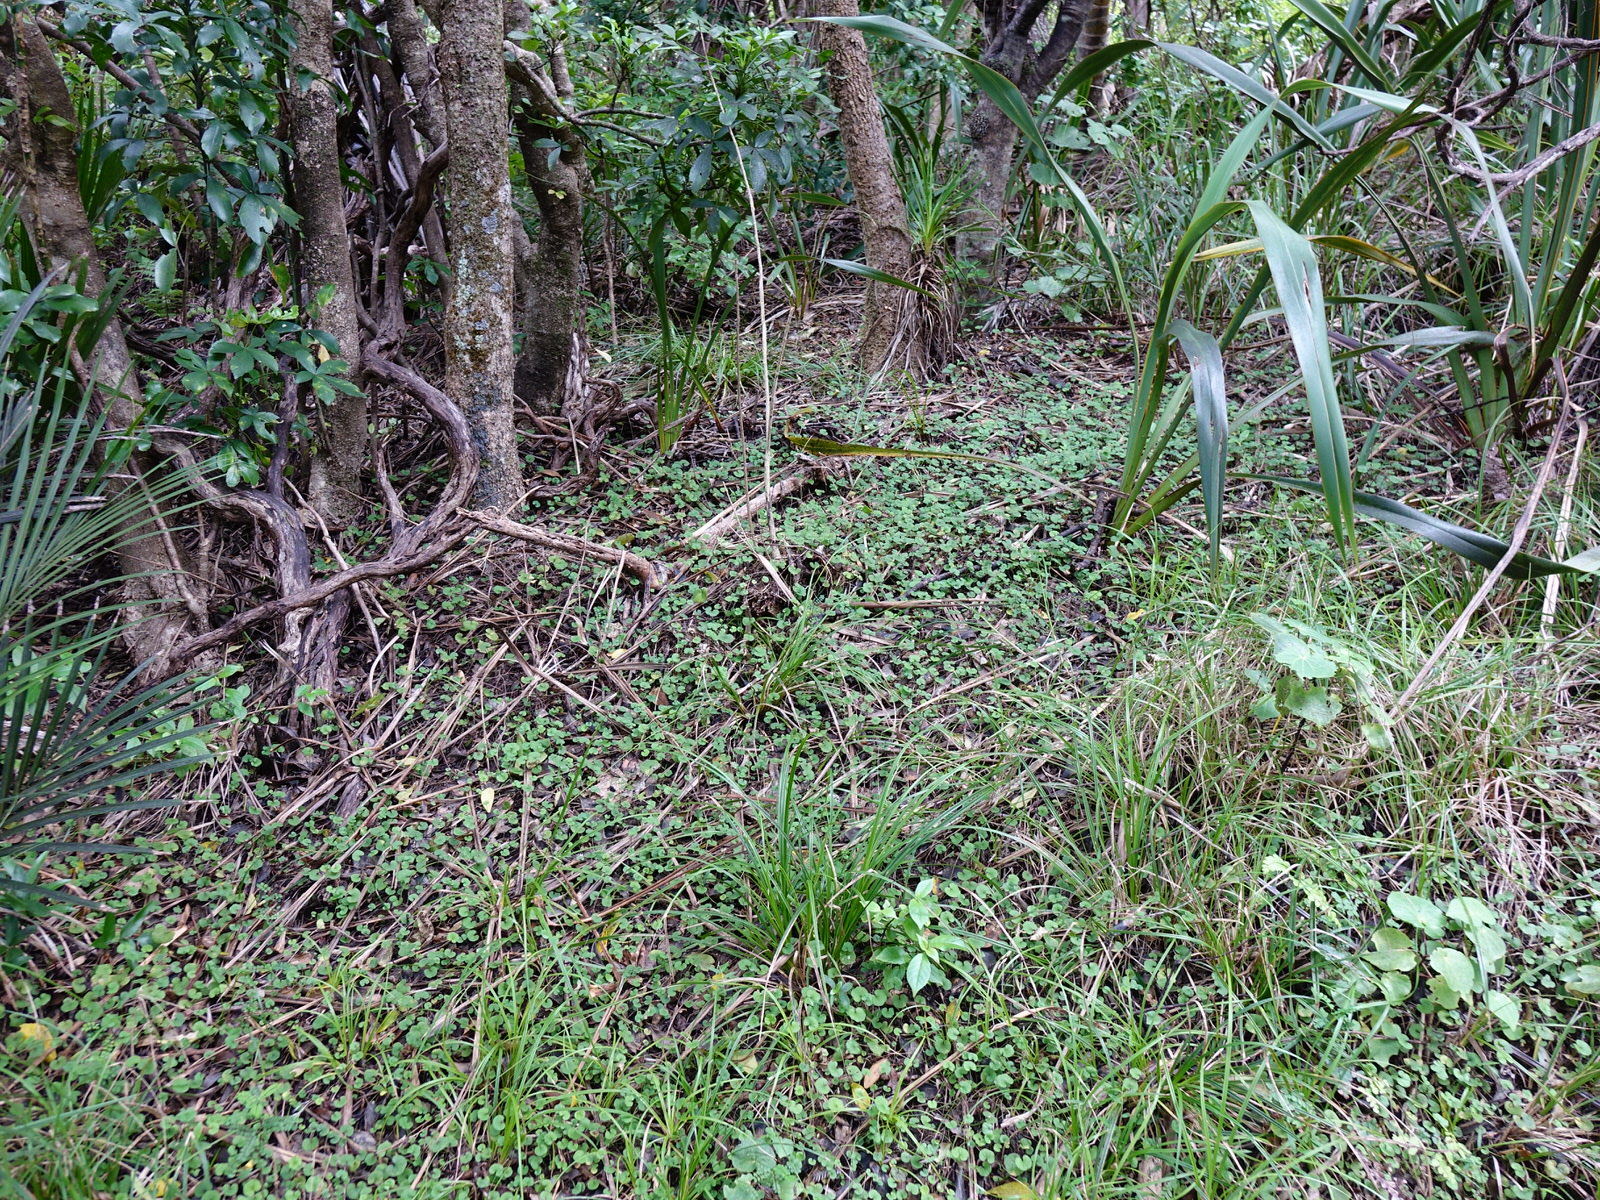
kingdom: Plantae
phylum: Tracheophyta
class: Magnoliopsida
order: Solanales
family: Convolvulaceae
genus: Dichondra
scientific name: Dichondra repens
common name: Kidneyweed
